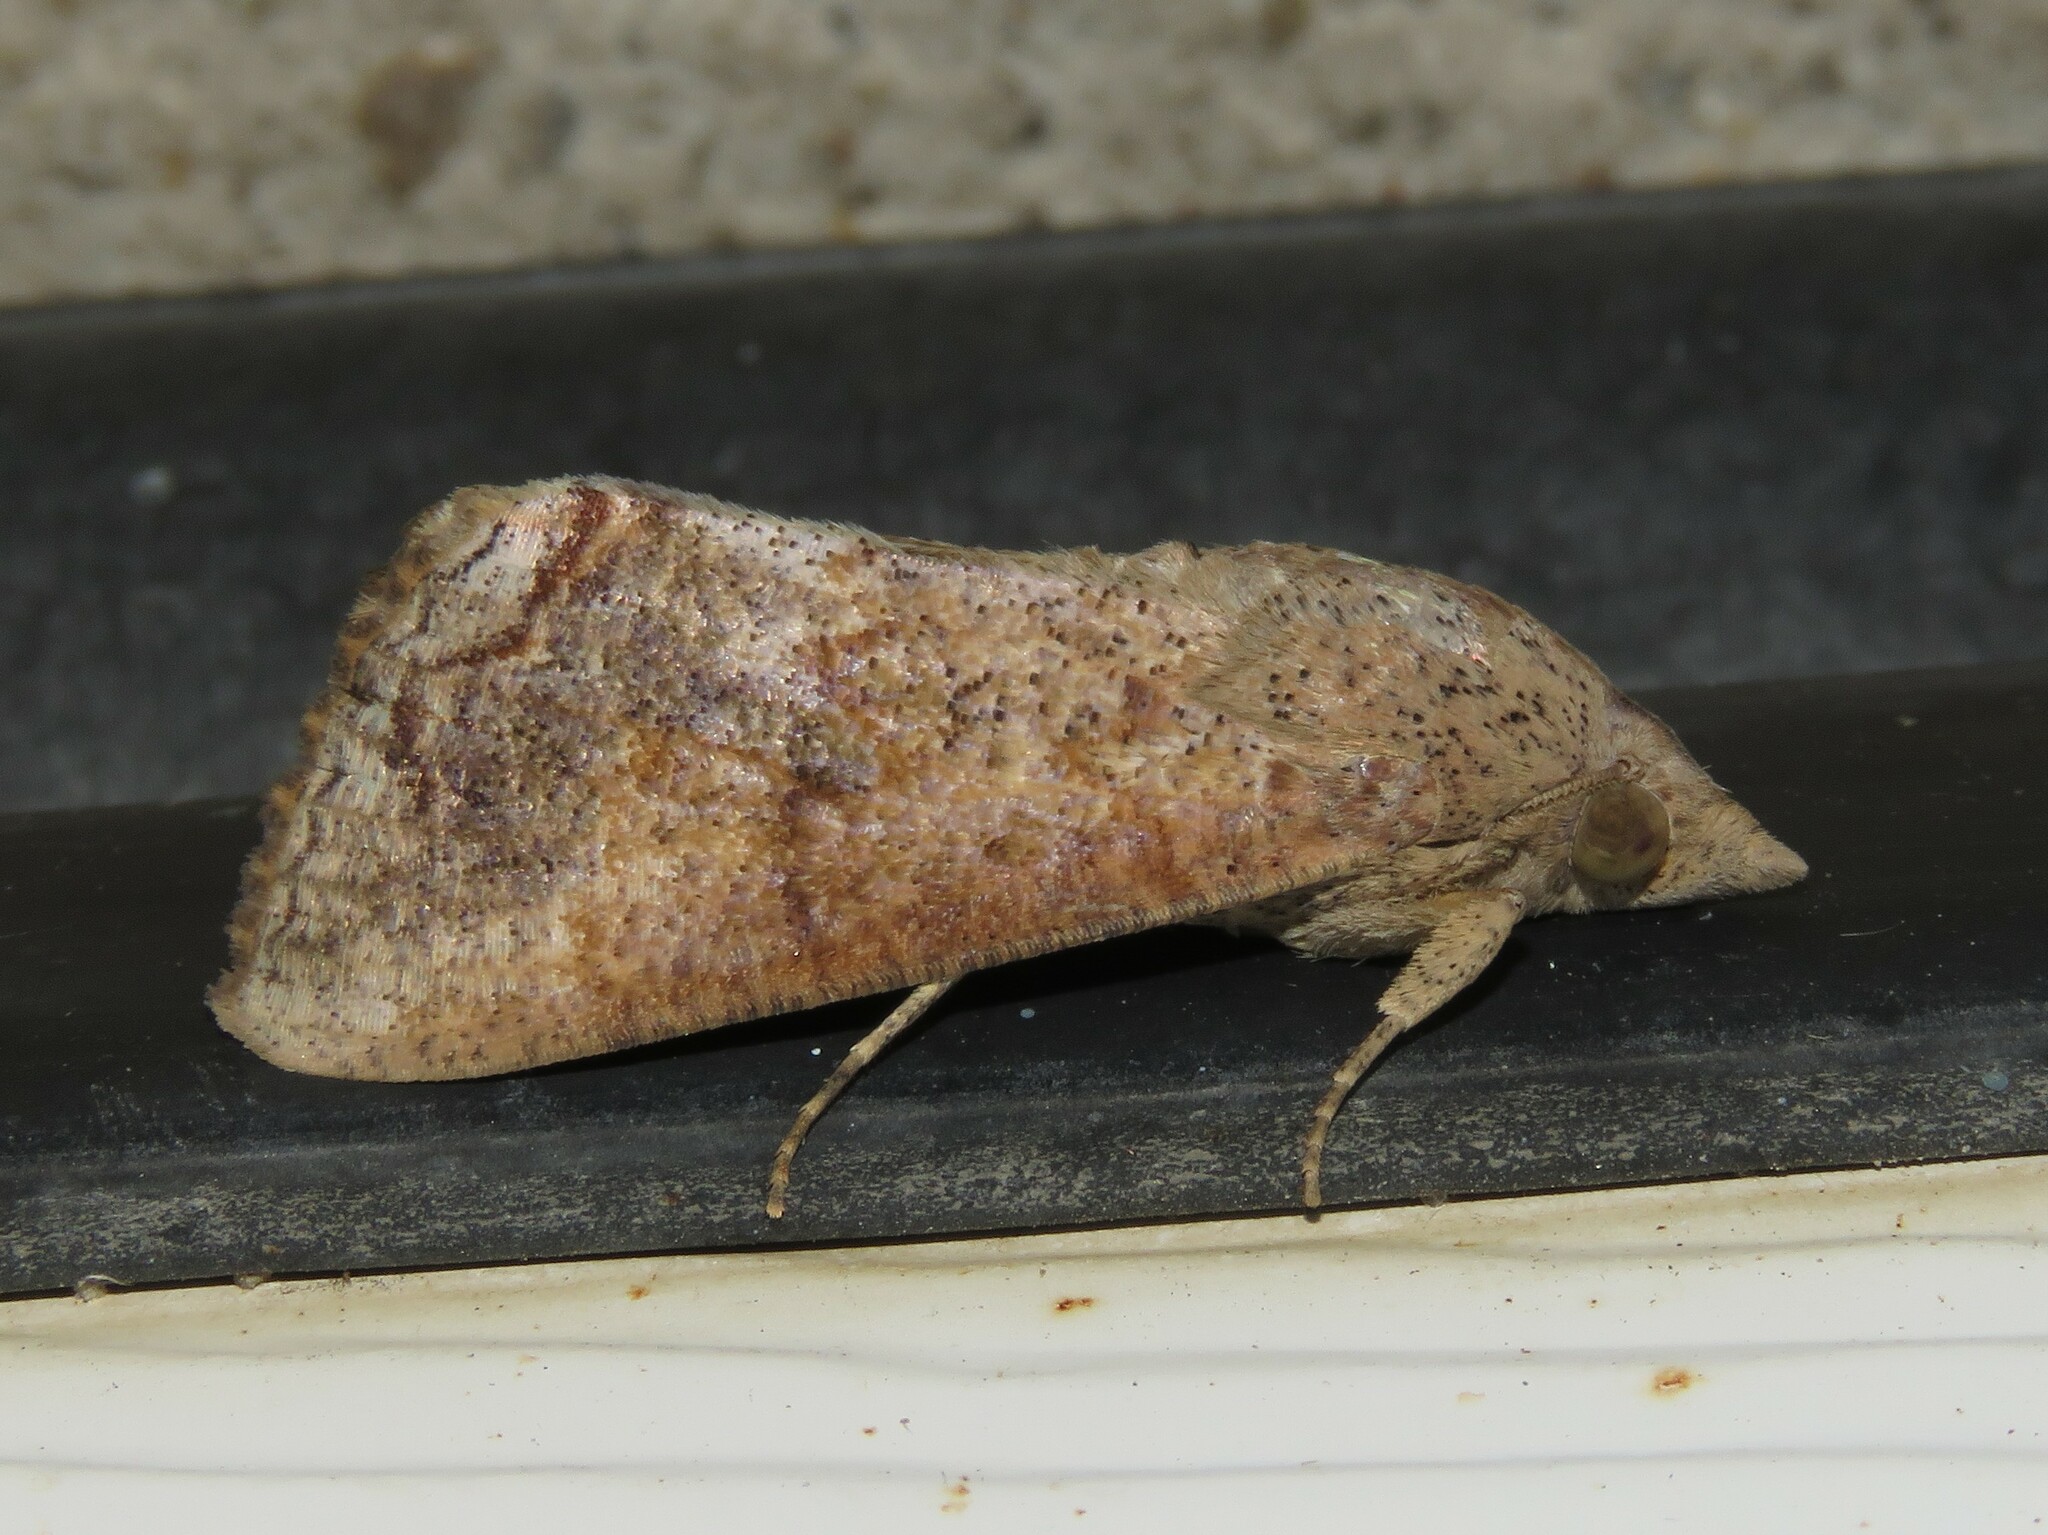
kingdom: Animalia
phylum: Arthropoda
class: Insecta
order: Lepidoptera
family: Erebidae
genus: Hypocala
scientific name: Hypocala andremona
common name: Hypocala moth
